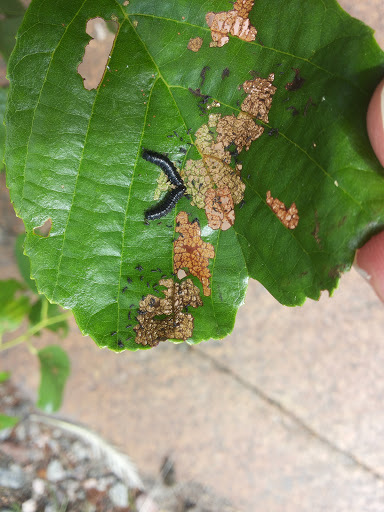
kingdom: Animalia
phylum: Arthropoda
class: Insecta
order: Coleoptera
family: Chrysomelidae
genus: Agelastica
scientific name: Agelastica alni
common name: Alder leaf beetle
